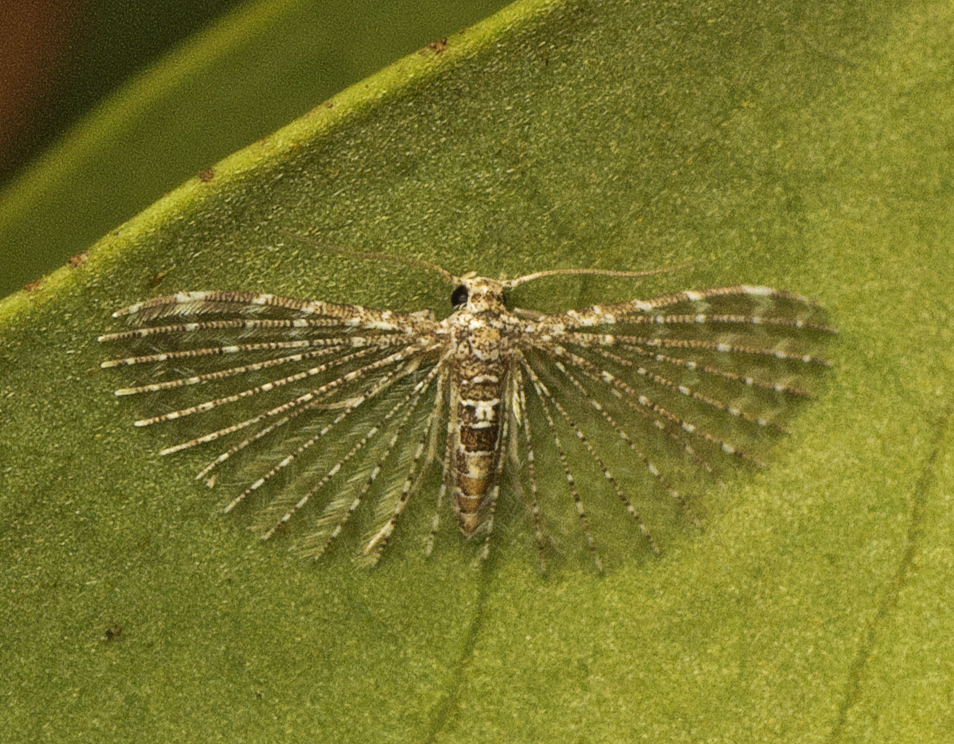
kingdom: Animalia
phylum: Arthropoda
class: Insecta
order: Lepidoptera
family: Alucitidae
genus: Alucita
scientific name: Alucita pygmaea
